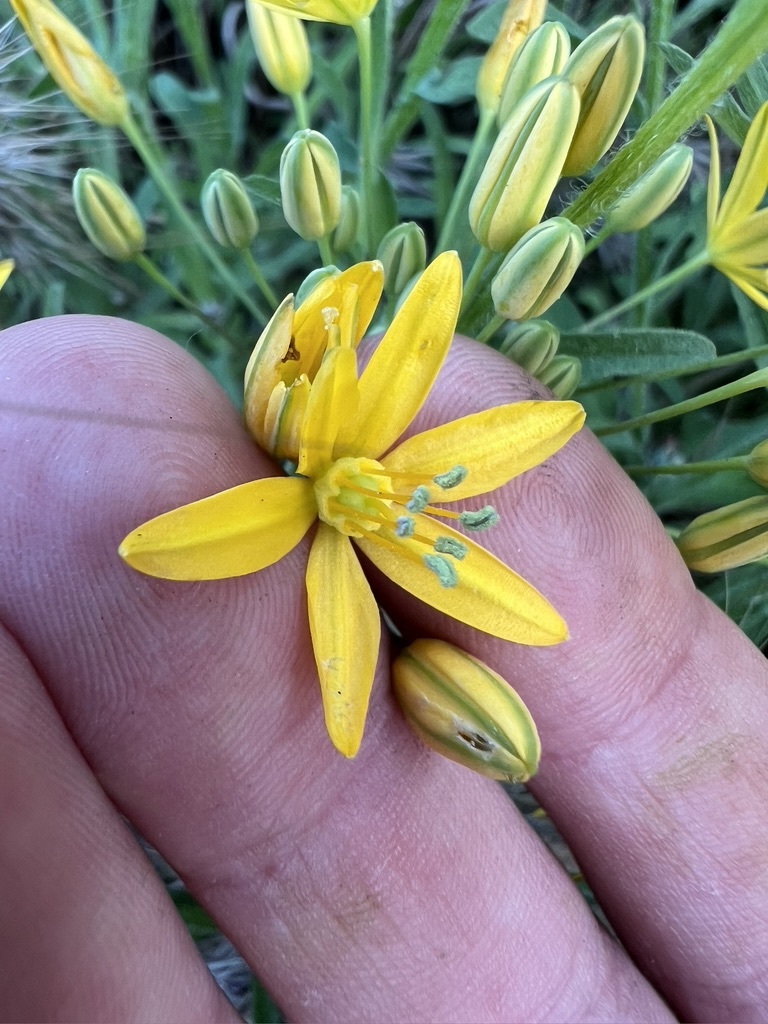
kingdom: Plantae
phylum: Tracheophyta
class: Liliopsida
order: Asparagales
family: Asparagaceae
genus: Bloomeria
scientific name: Bloomeria crocea
